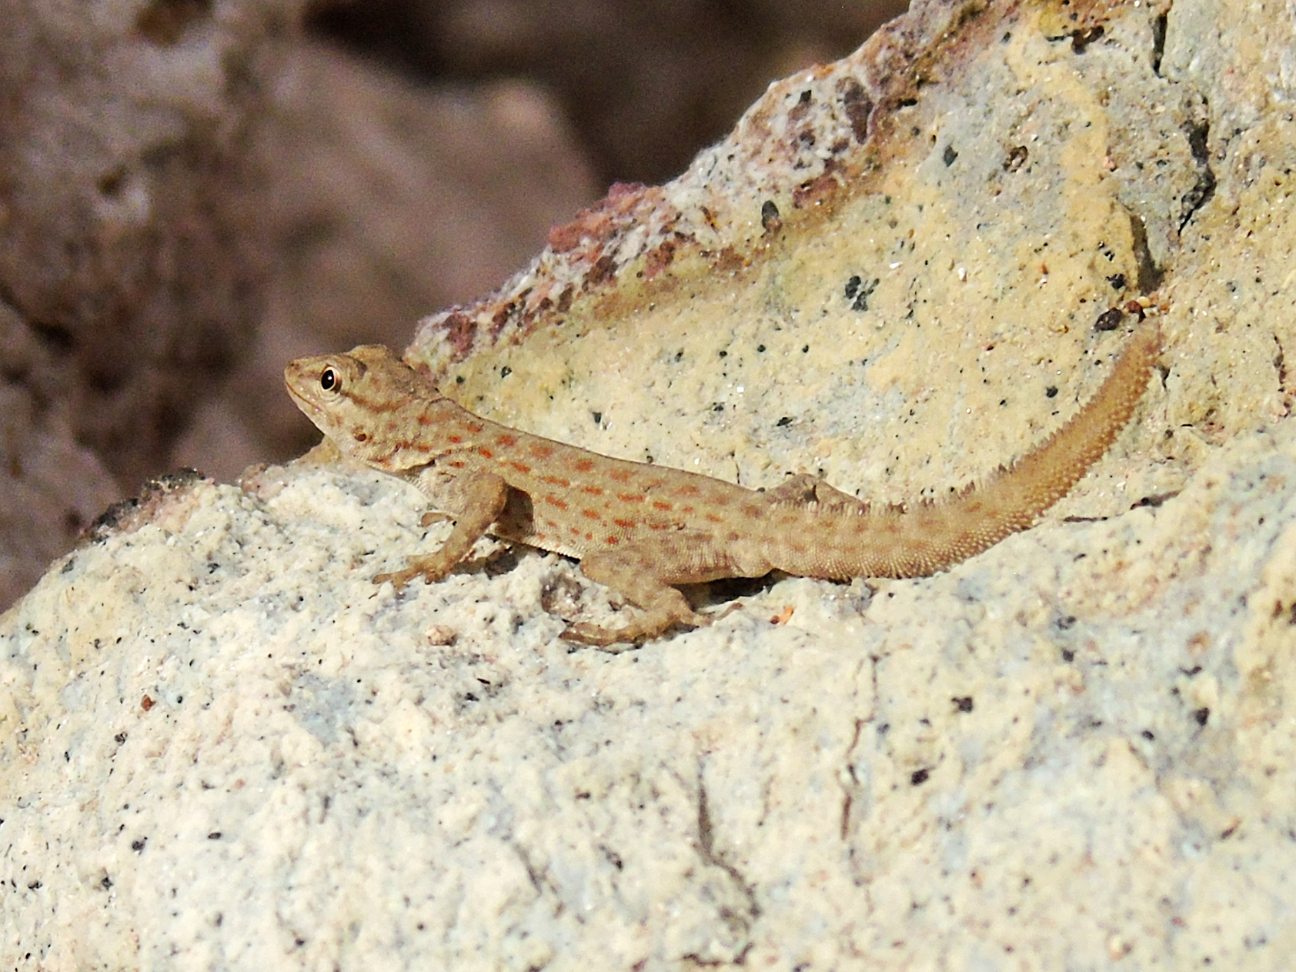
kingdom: Animalia
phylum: Chordata
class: Squamata
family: Sphaerodactylidae
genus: Pristurus
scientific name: Pristurus rupestris
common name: Blanford’s semaphore gecko
